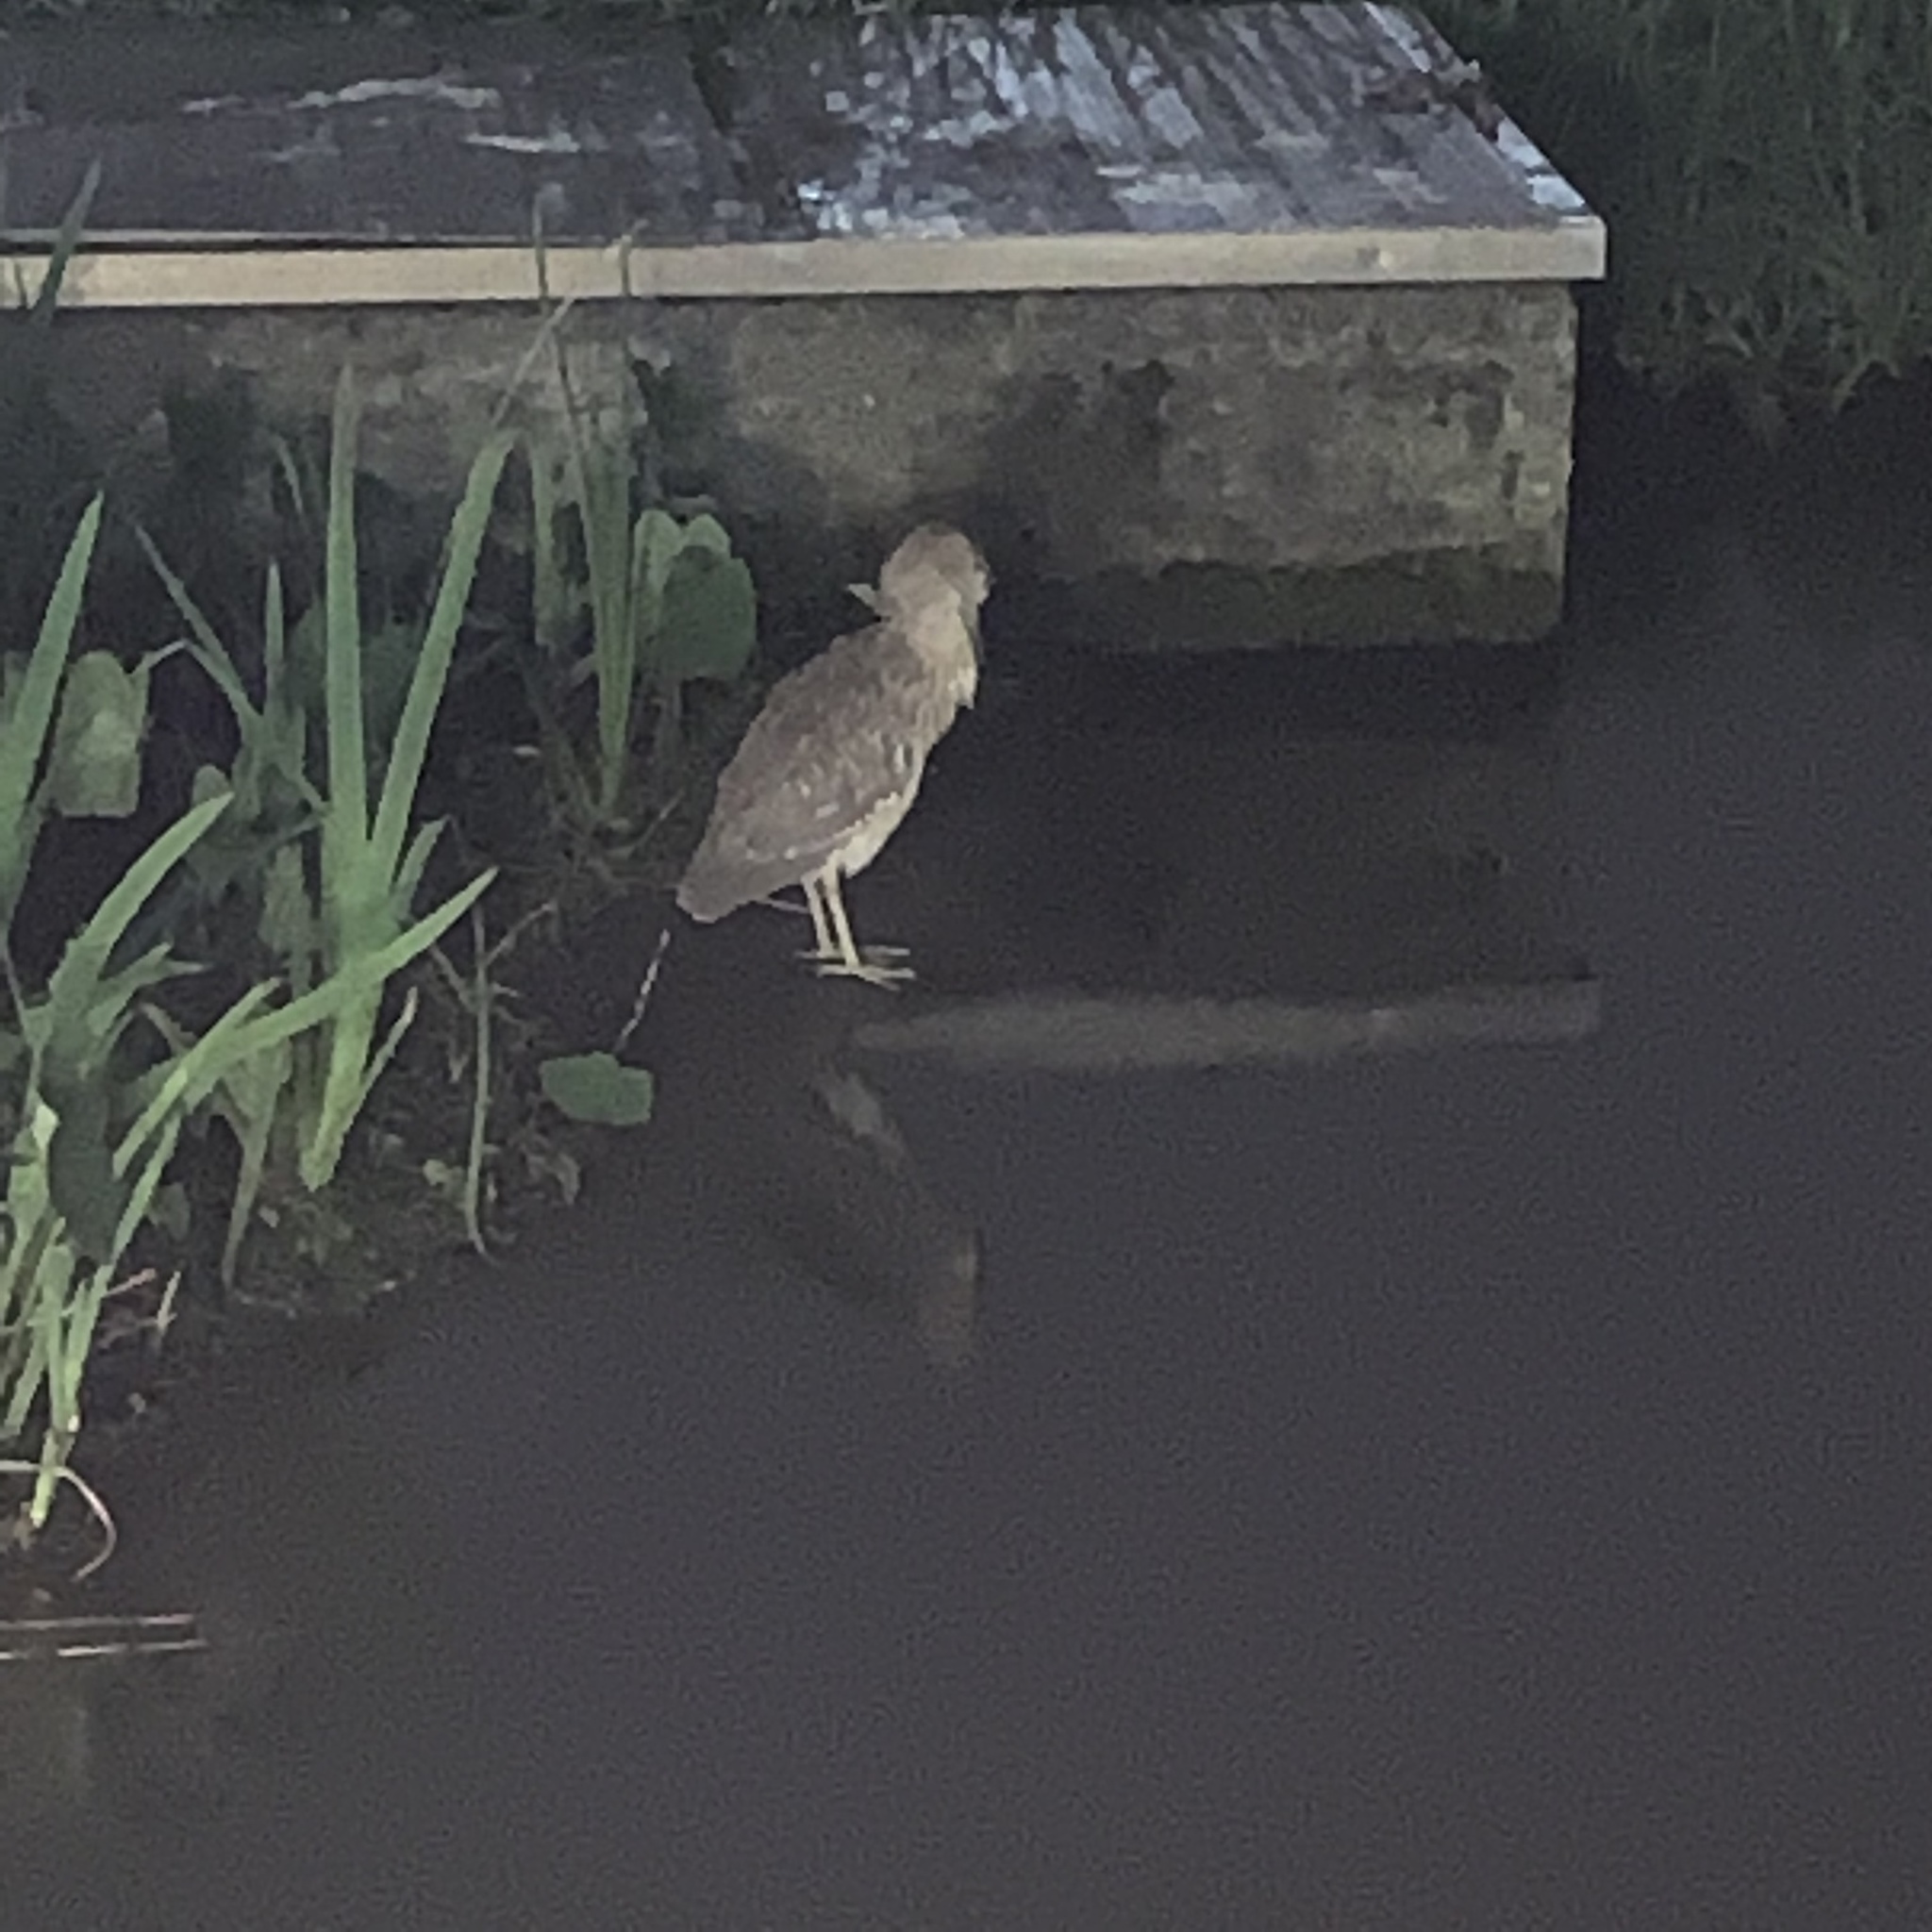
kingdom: Animalia
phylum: Chordata
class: Aves
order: Pelecaniformes
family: Ardeidae
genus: Nycticorax
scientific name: Nycticorax nycticorax
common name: Black-crowned night heron
